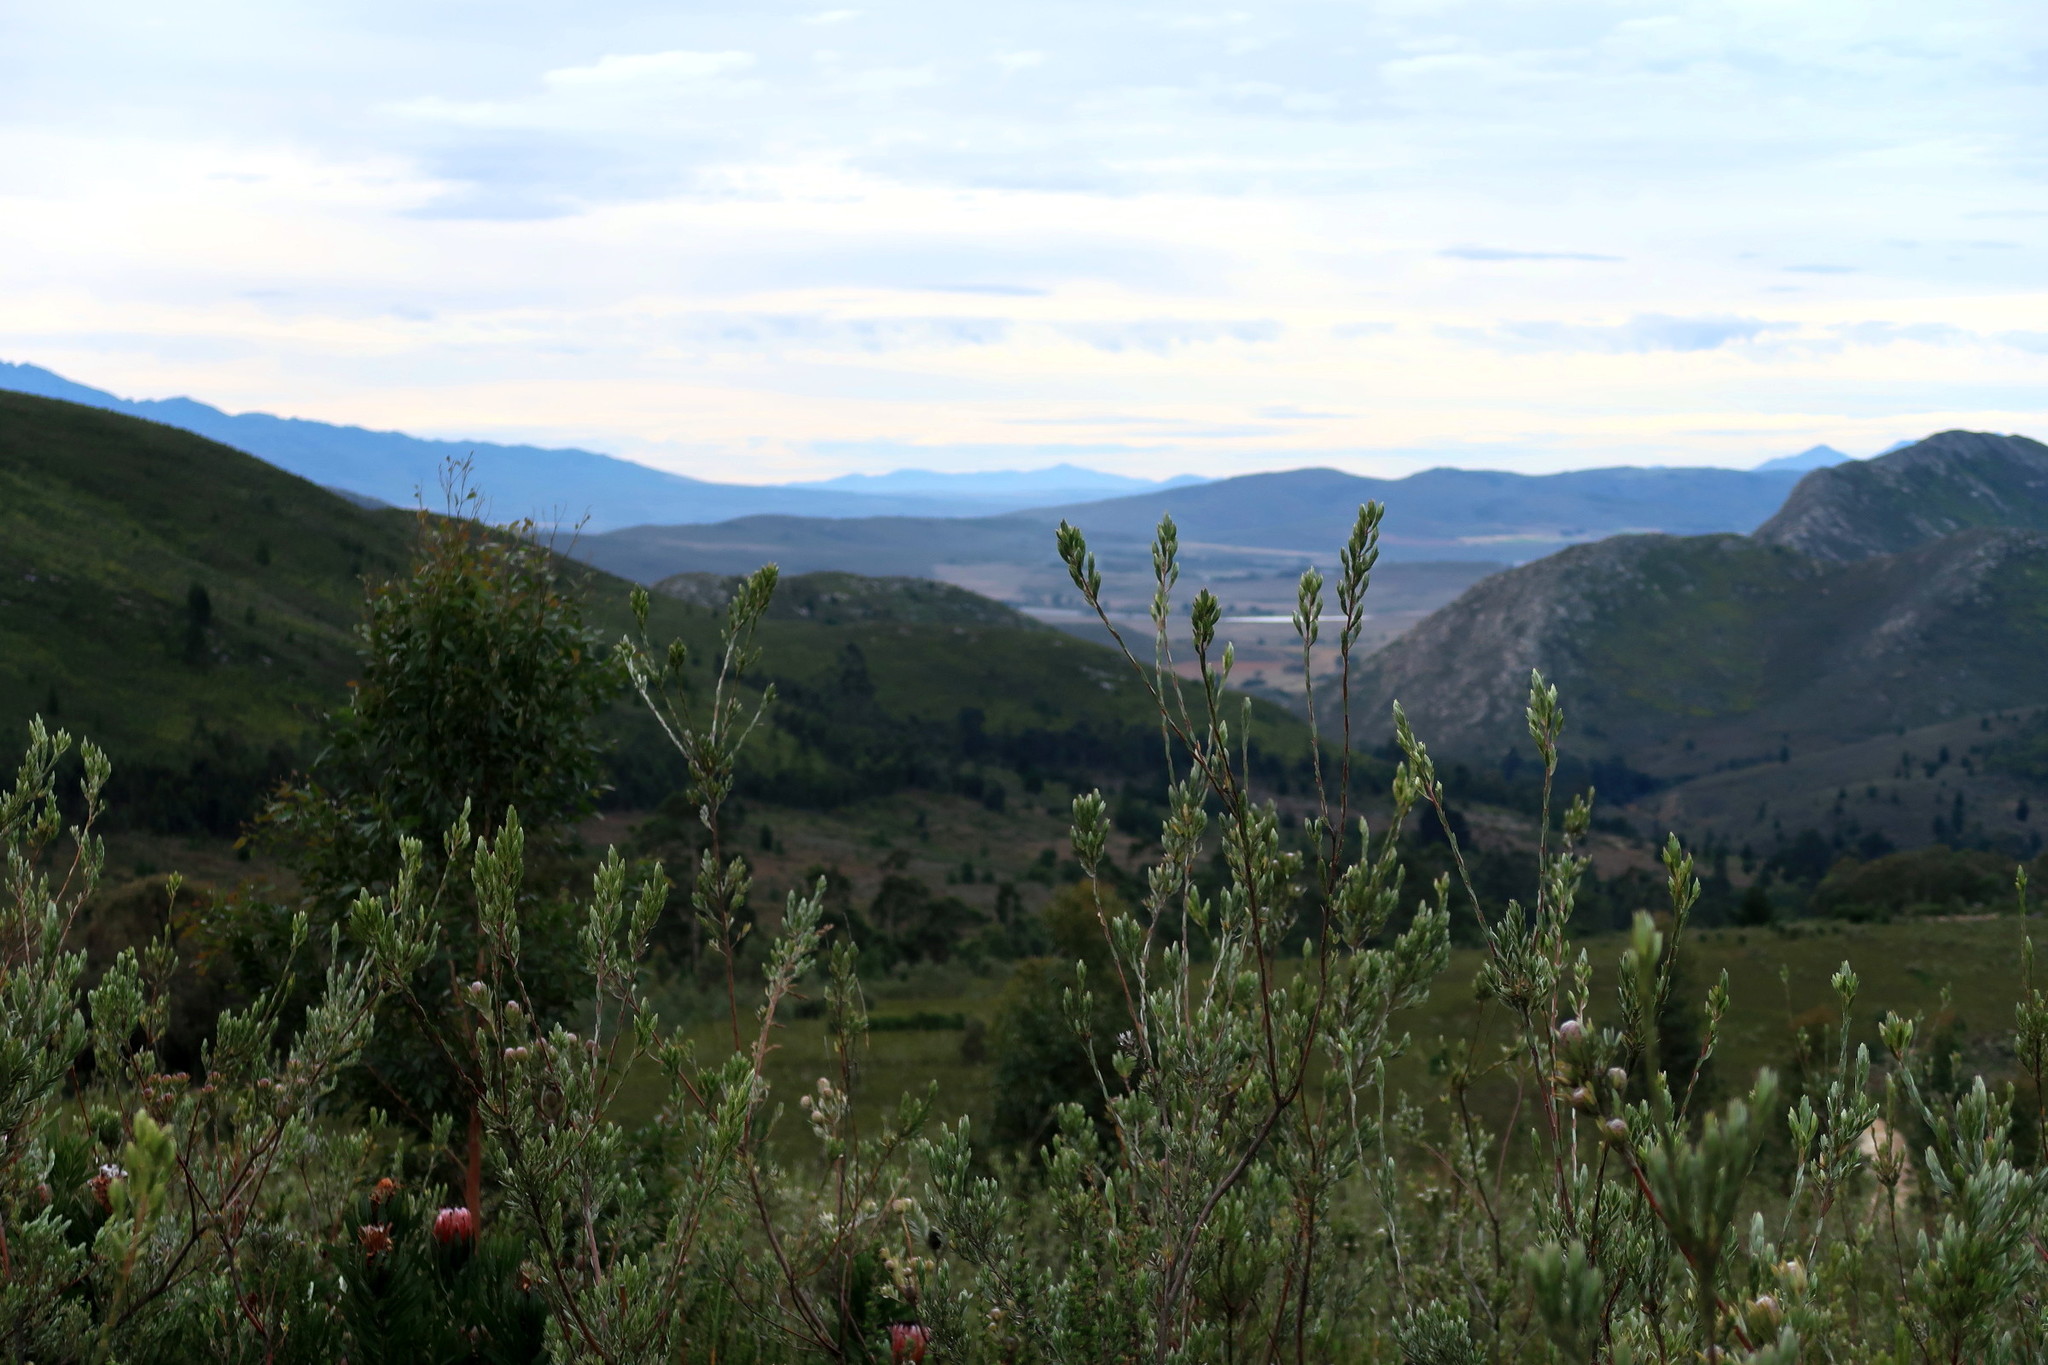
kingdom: Plantae
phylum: Tracheophyta
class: Magnoliopsida
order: Proteales
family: Proteaceae
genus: Leucadendron
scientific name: Leucadendron uliginosum
